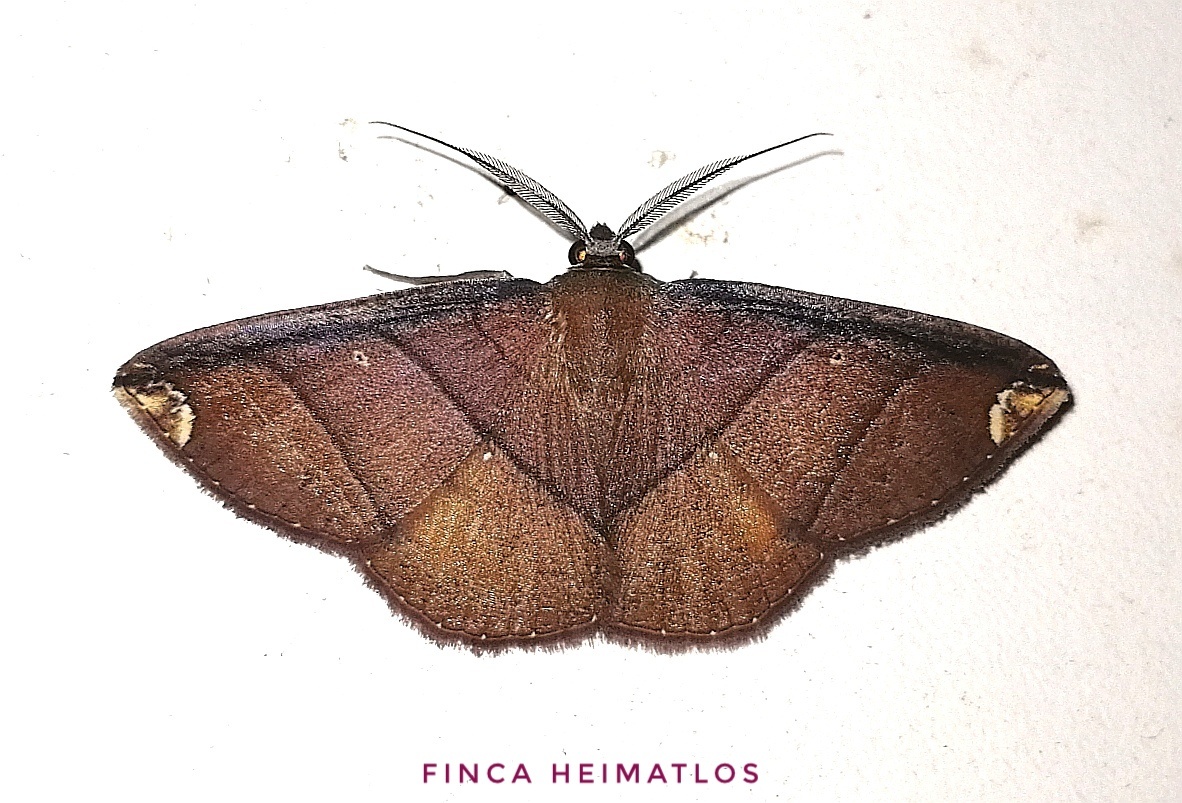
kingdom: Animalia
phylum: Arthropoda
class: Insecta
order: Lepidoptera
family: Geometridae
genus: Thysanopyga
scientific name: Thysanopyga carfinia
